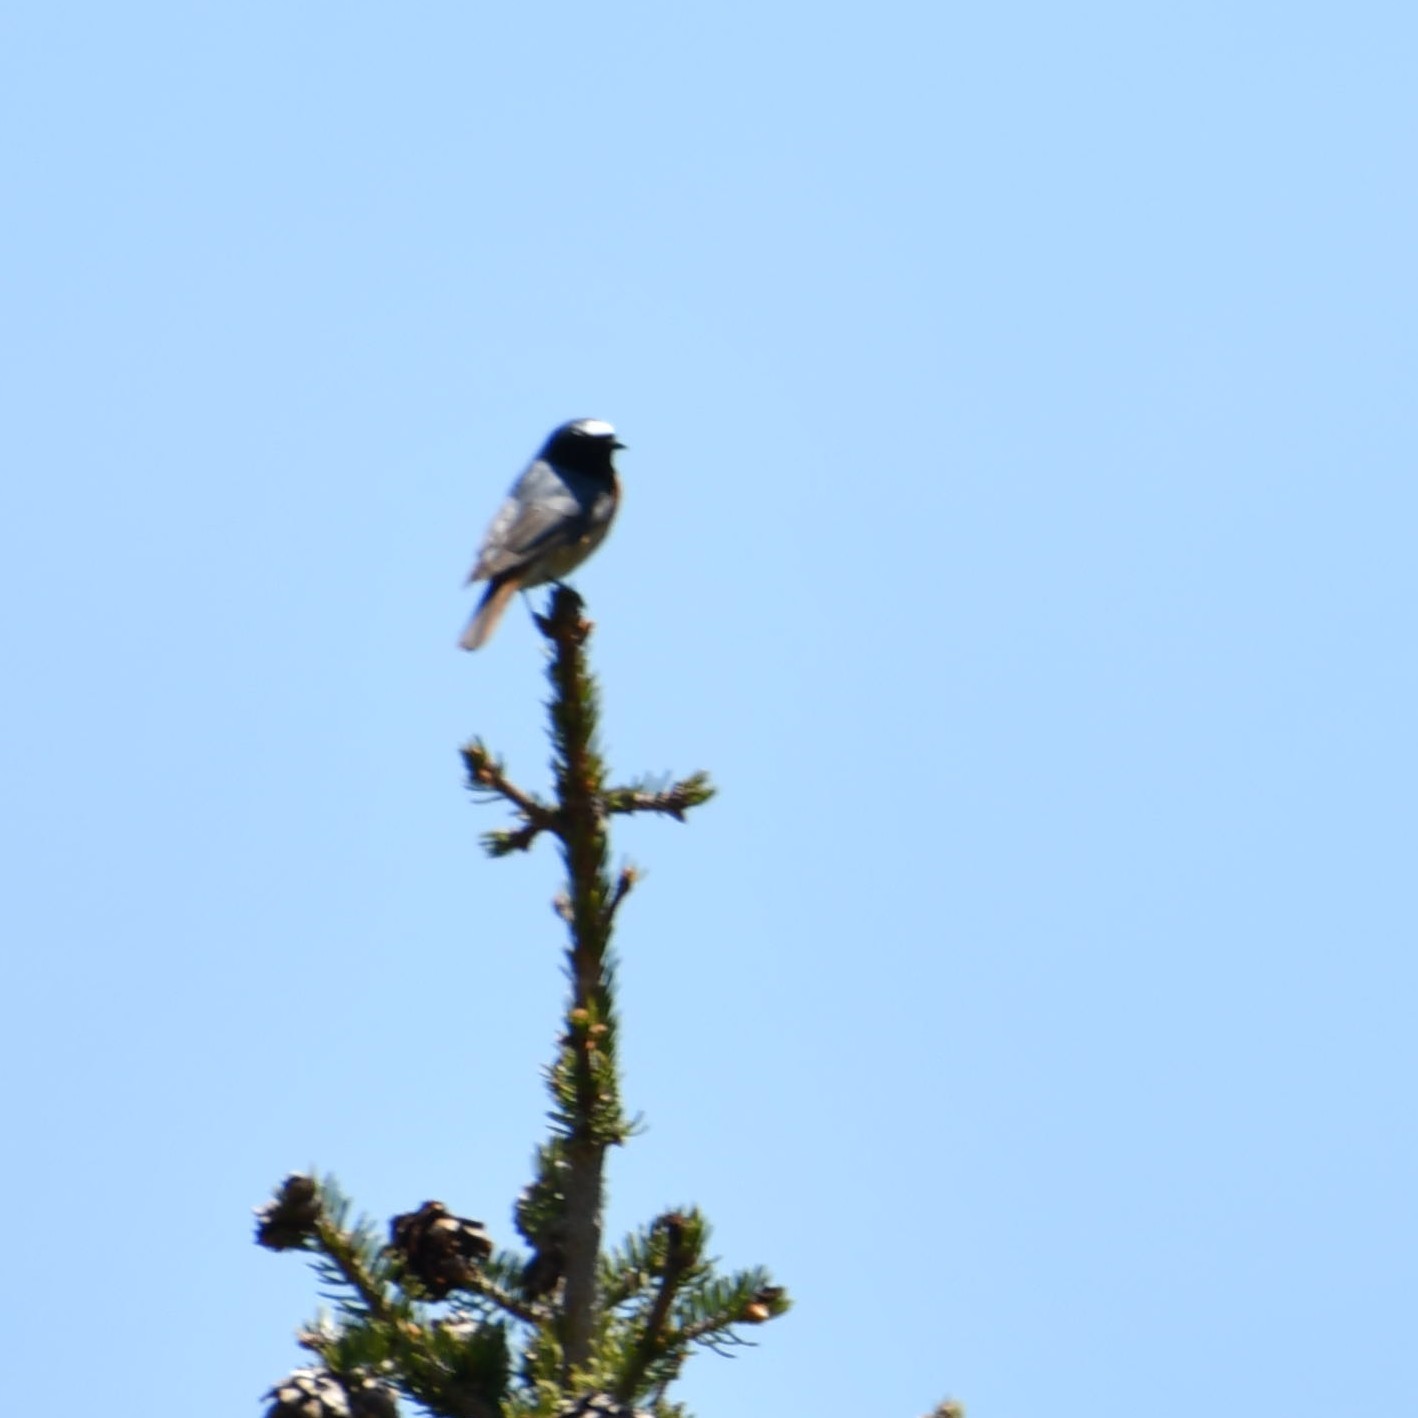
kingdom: Animalia
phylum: Chordata
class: Aves
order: Passeriformes
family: Muscicapidae
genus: Phoenicurus
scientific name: Phoenicurus phoenicurus
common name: Common redstart
